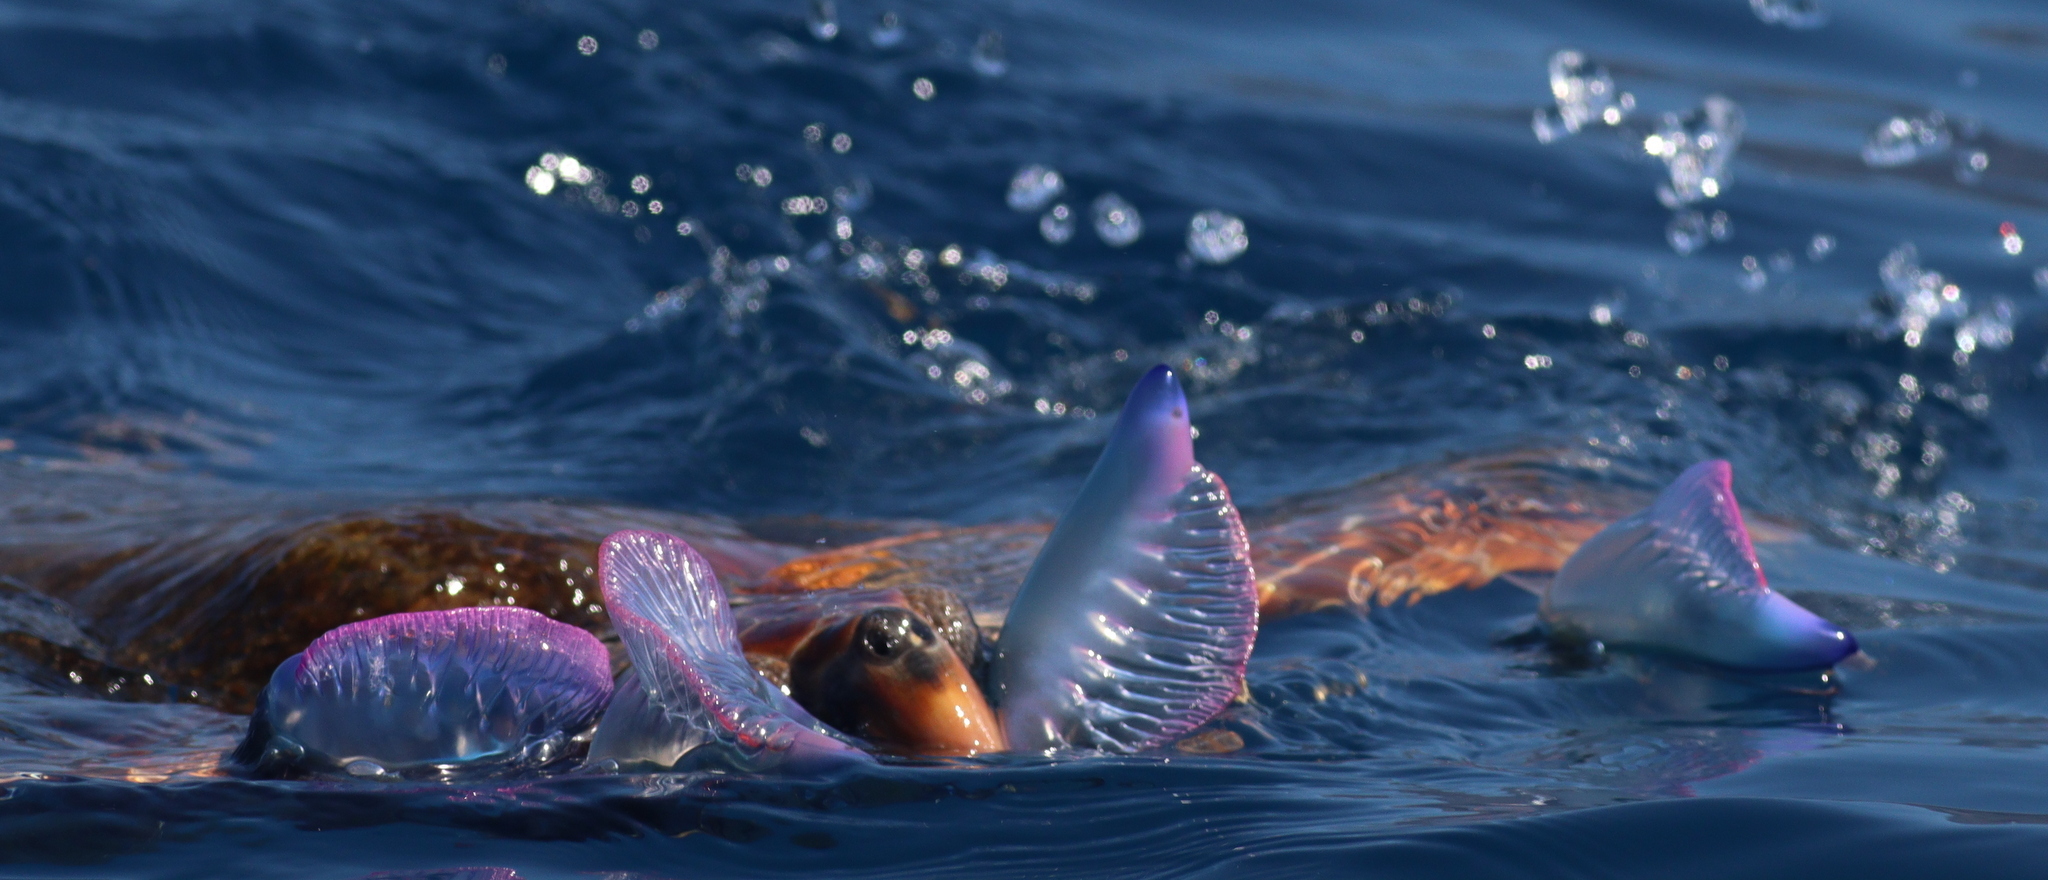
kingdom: Animalia
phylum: Cnidaria
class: Hydrozoa
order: Siphonophorae
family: Physaliidae
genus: Physalia
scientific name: Physalia physalis
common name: Portuguese man-of-war
